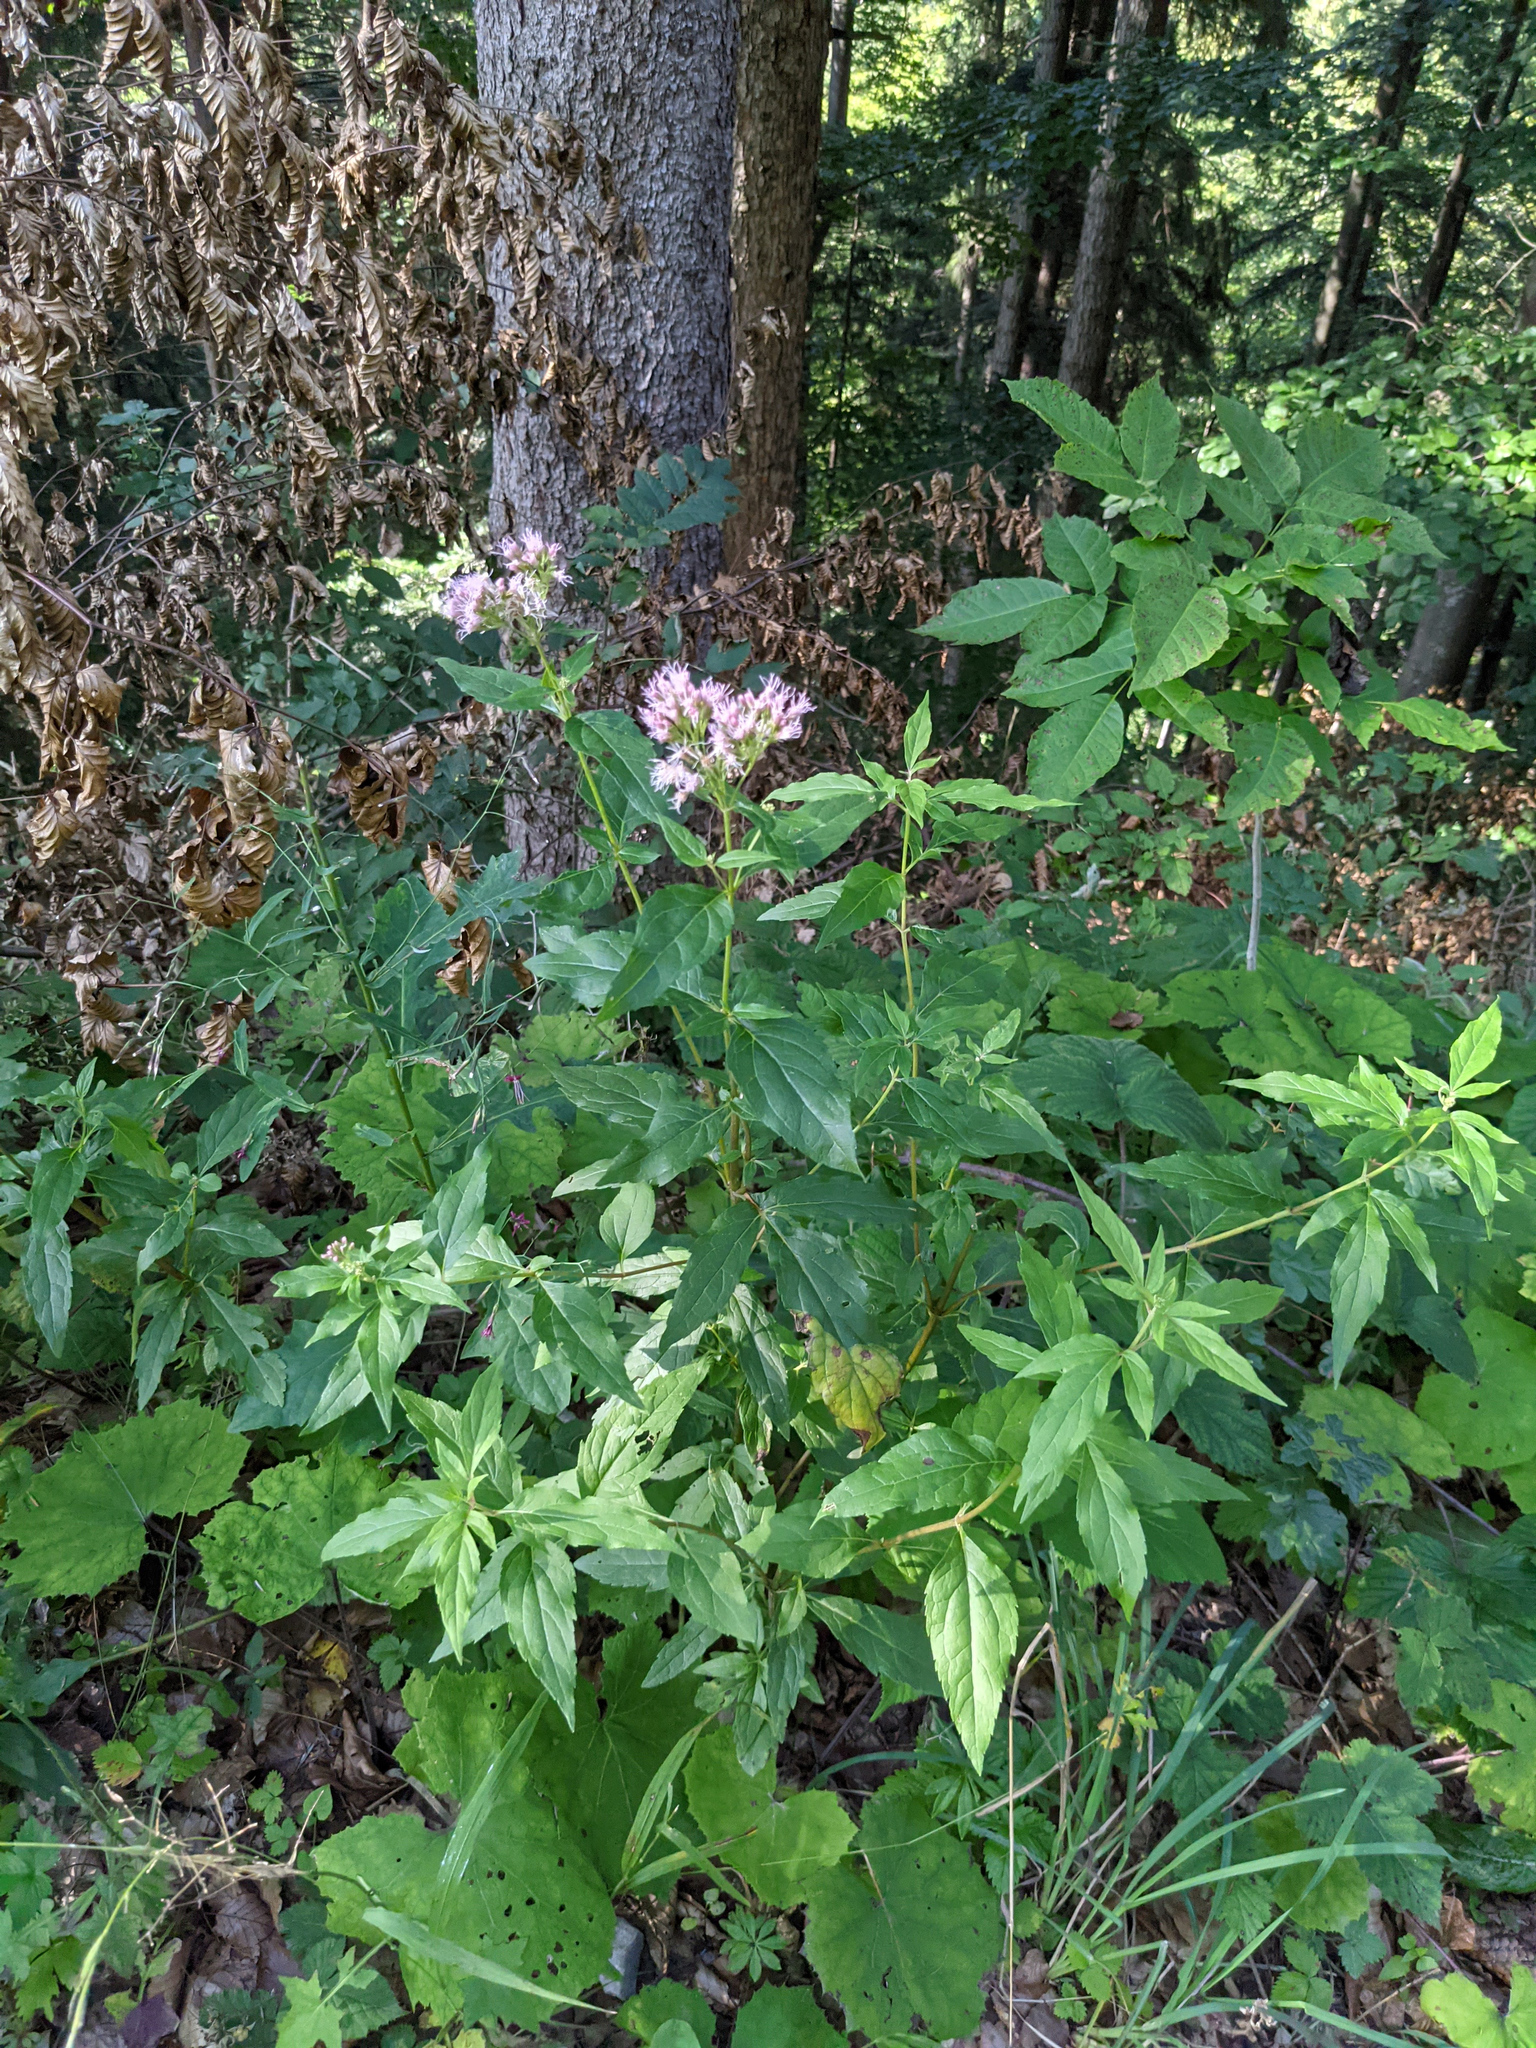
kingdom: Plantae
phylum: Tracheophyta
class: Magnoliopsida
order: Asterales
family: Asteraceae
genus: Eupatorium
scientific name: Eupatorium cannabinum
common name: Hemp-agrimony
